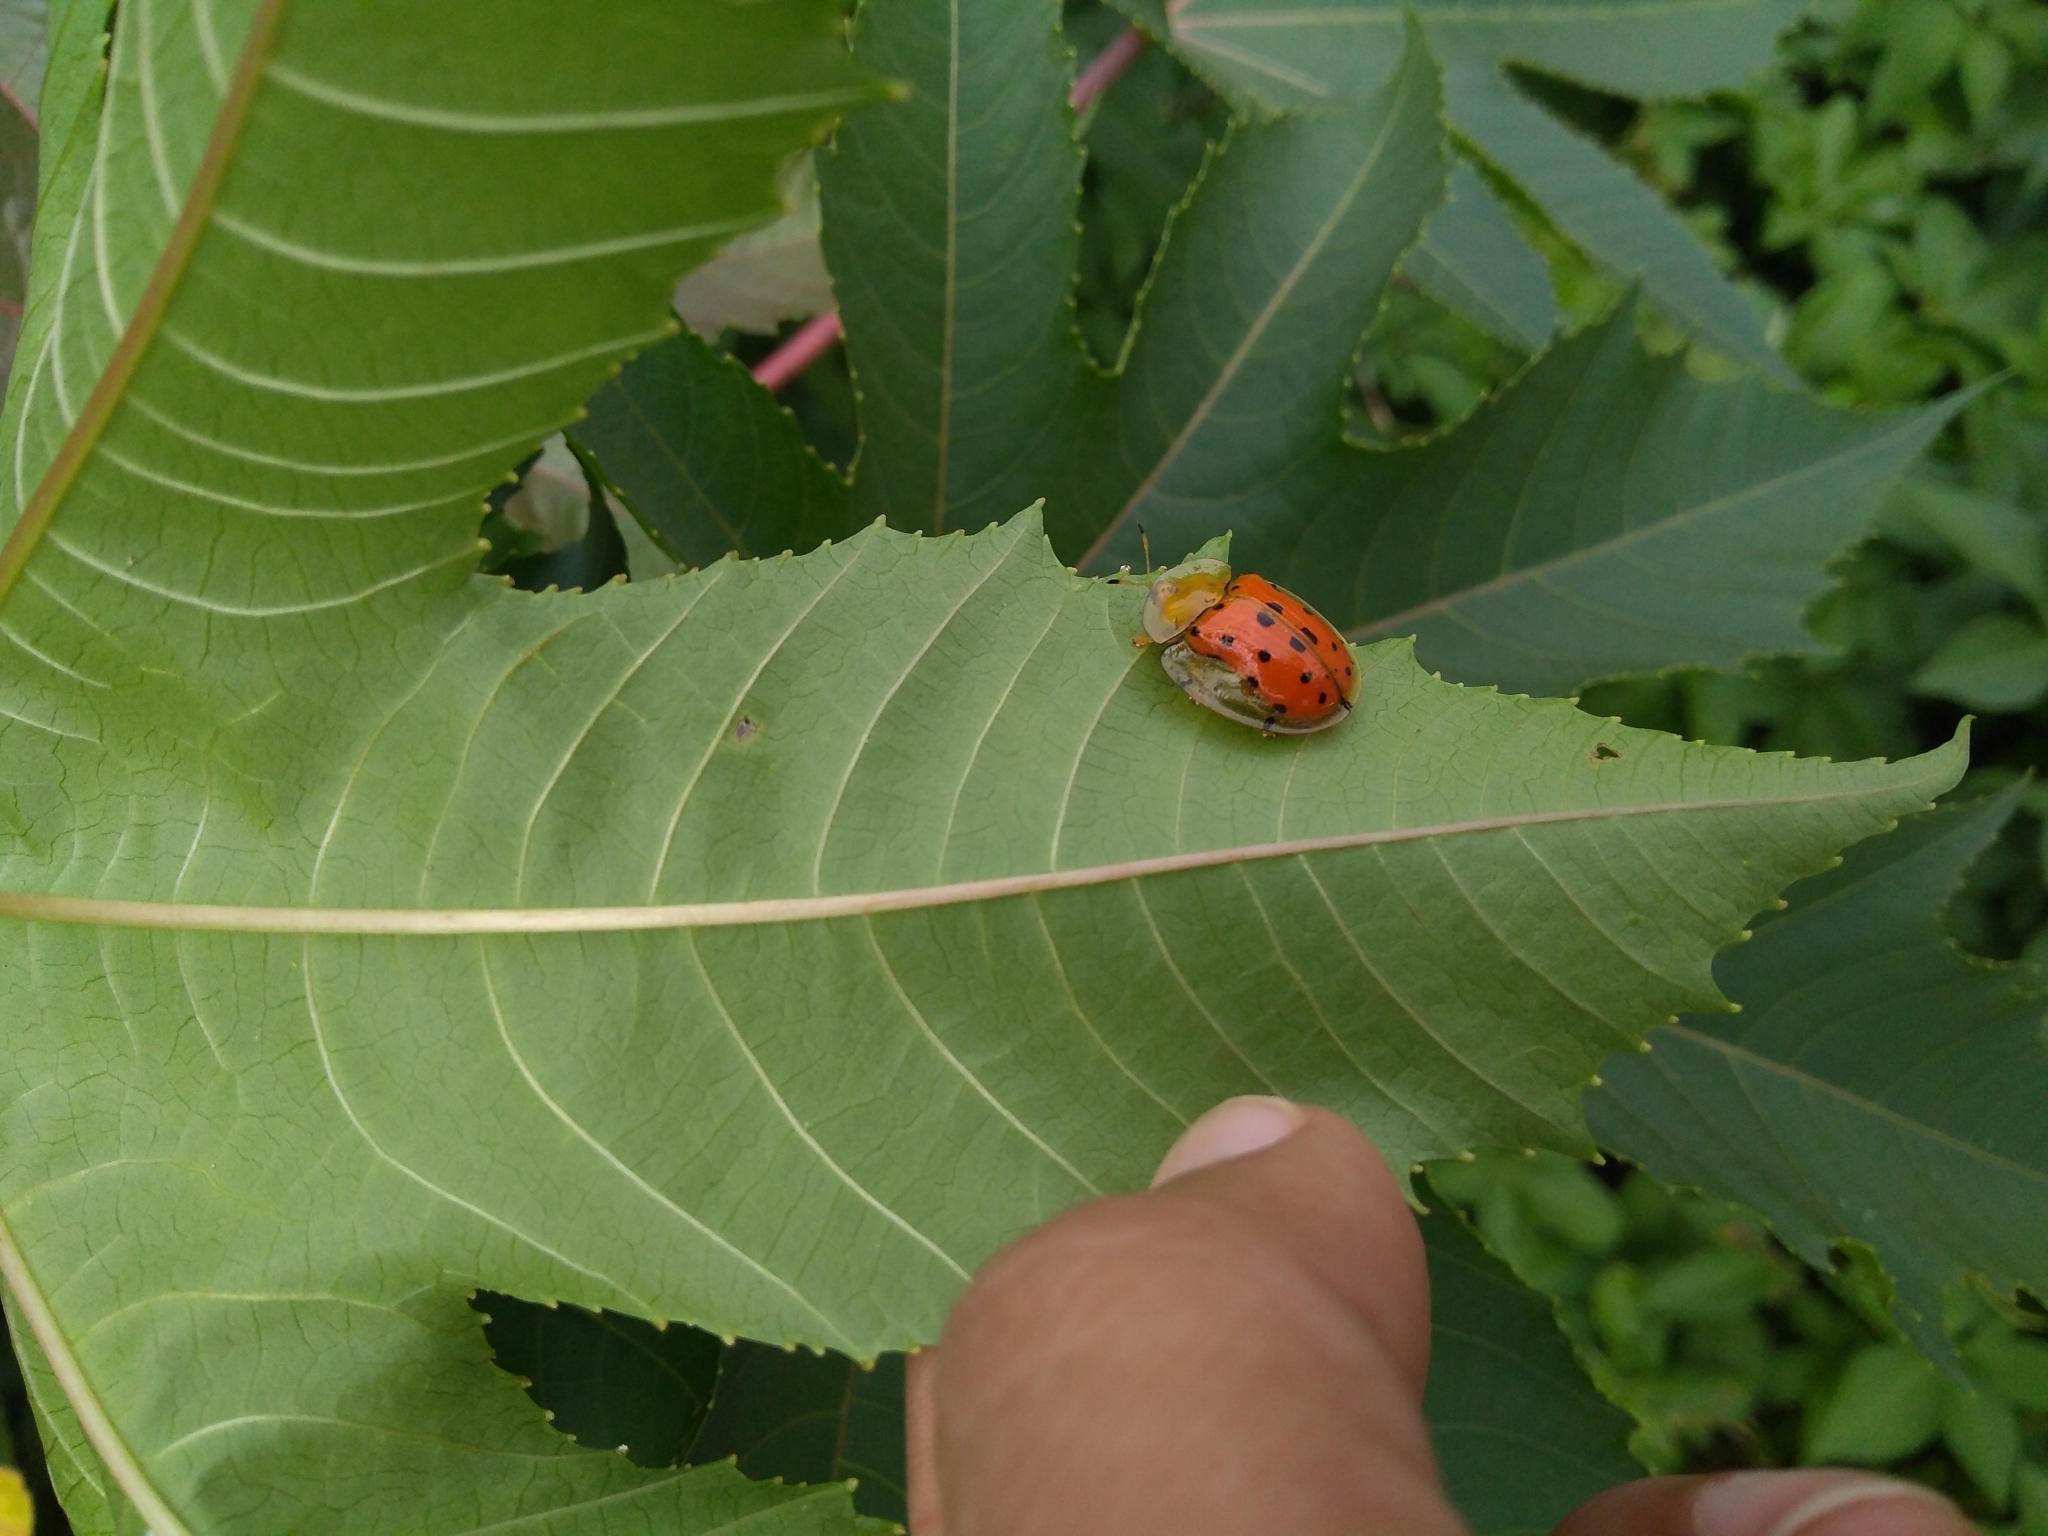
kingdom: Animalia
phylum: Arthropoda
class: Insecta
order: Coleoptera
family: Chrysomelidae
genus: Aspidimorpha
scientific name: Aspidimorpha miliaris
